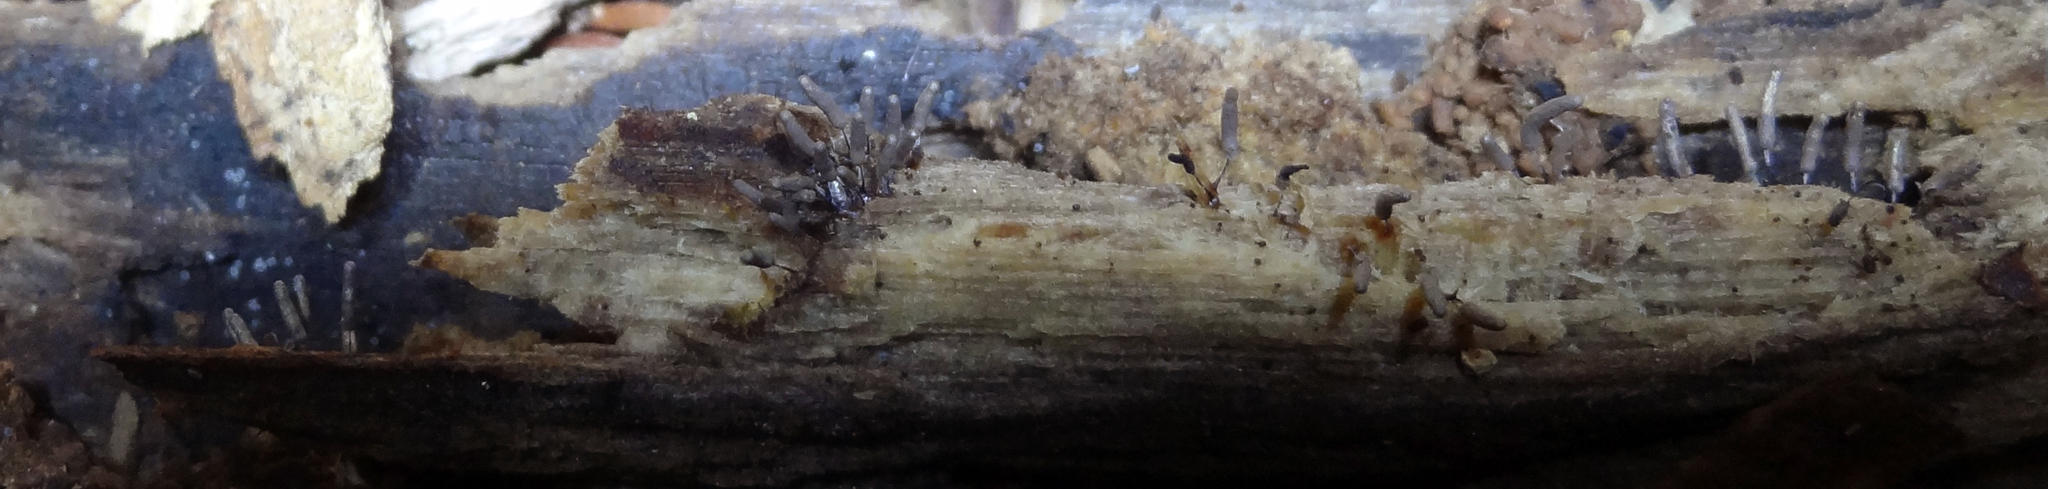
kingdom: Protozoa
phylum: Mycetozoa
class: Myxomycetes
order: Stemonitidales
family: Stemonitidaceae
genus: Stemonitopsis
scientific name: Stemonitopsis typhina
